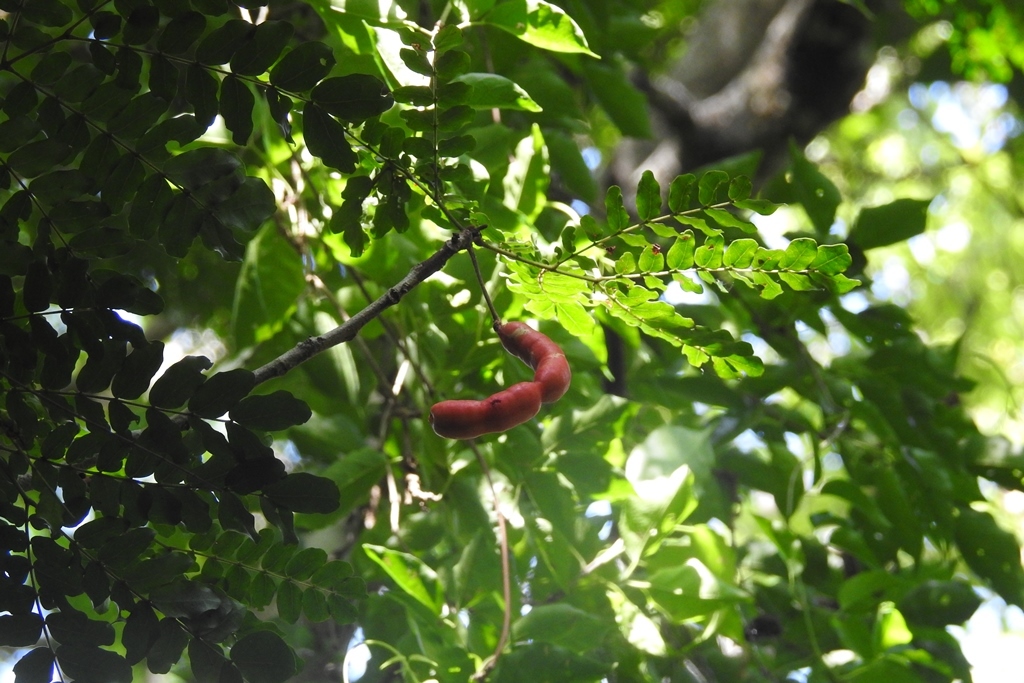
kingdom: Plantae
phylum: Tracheophyta
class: Magnoliopsida
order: Fabales
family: Fabaceae
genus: Cojoba
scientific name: Cojoba arborea
